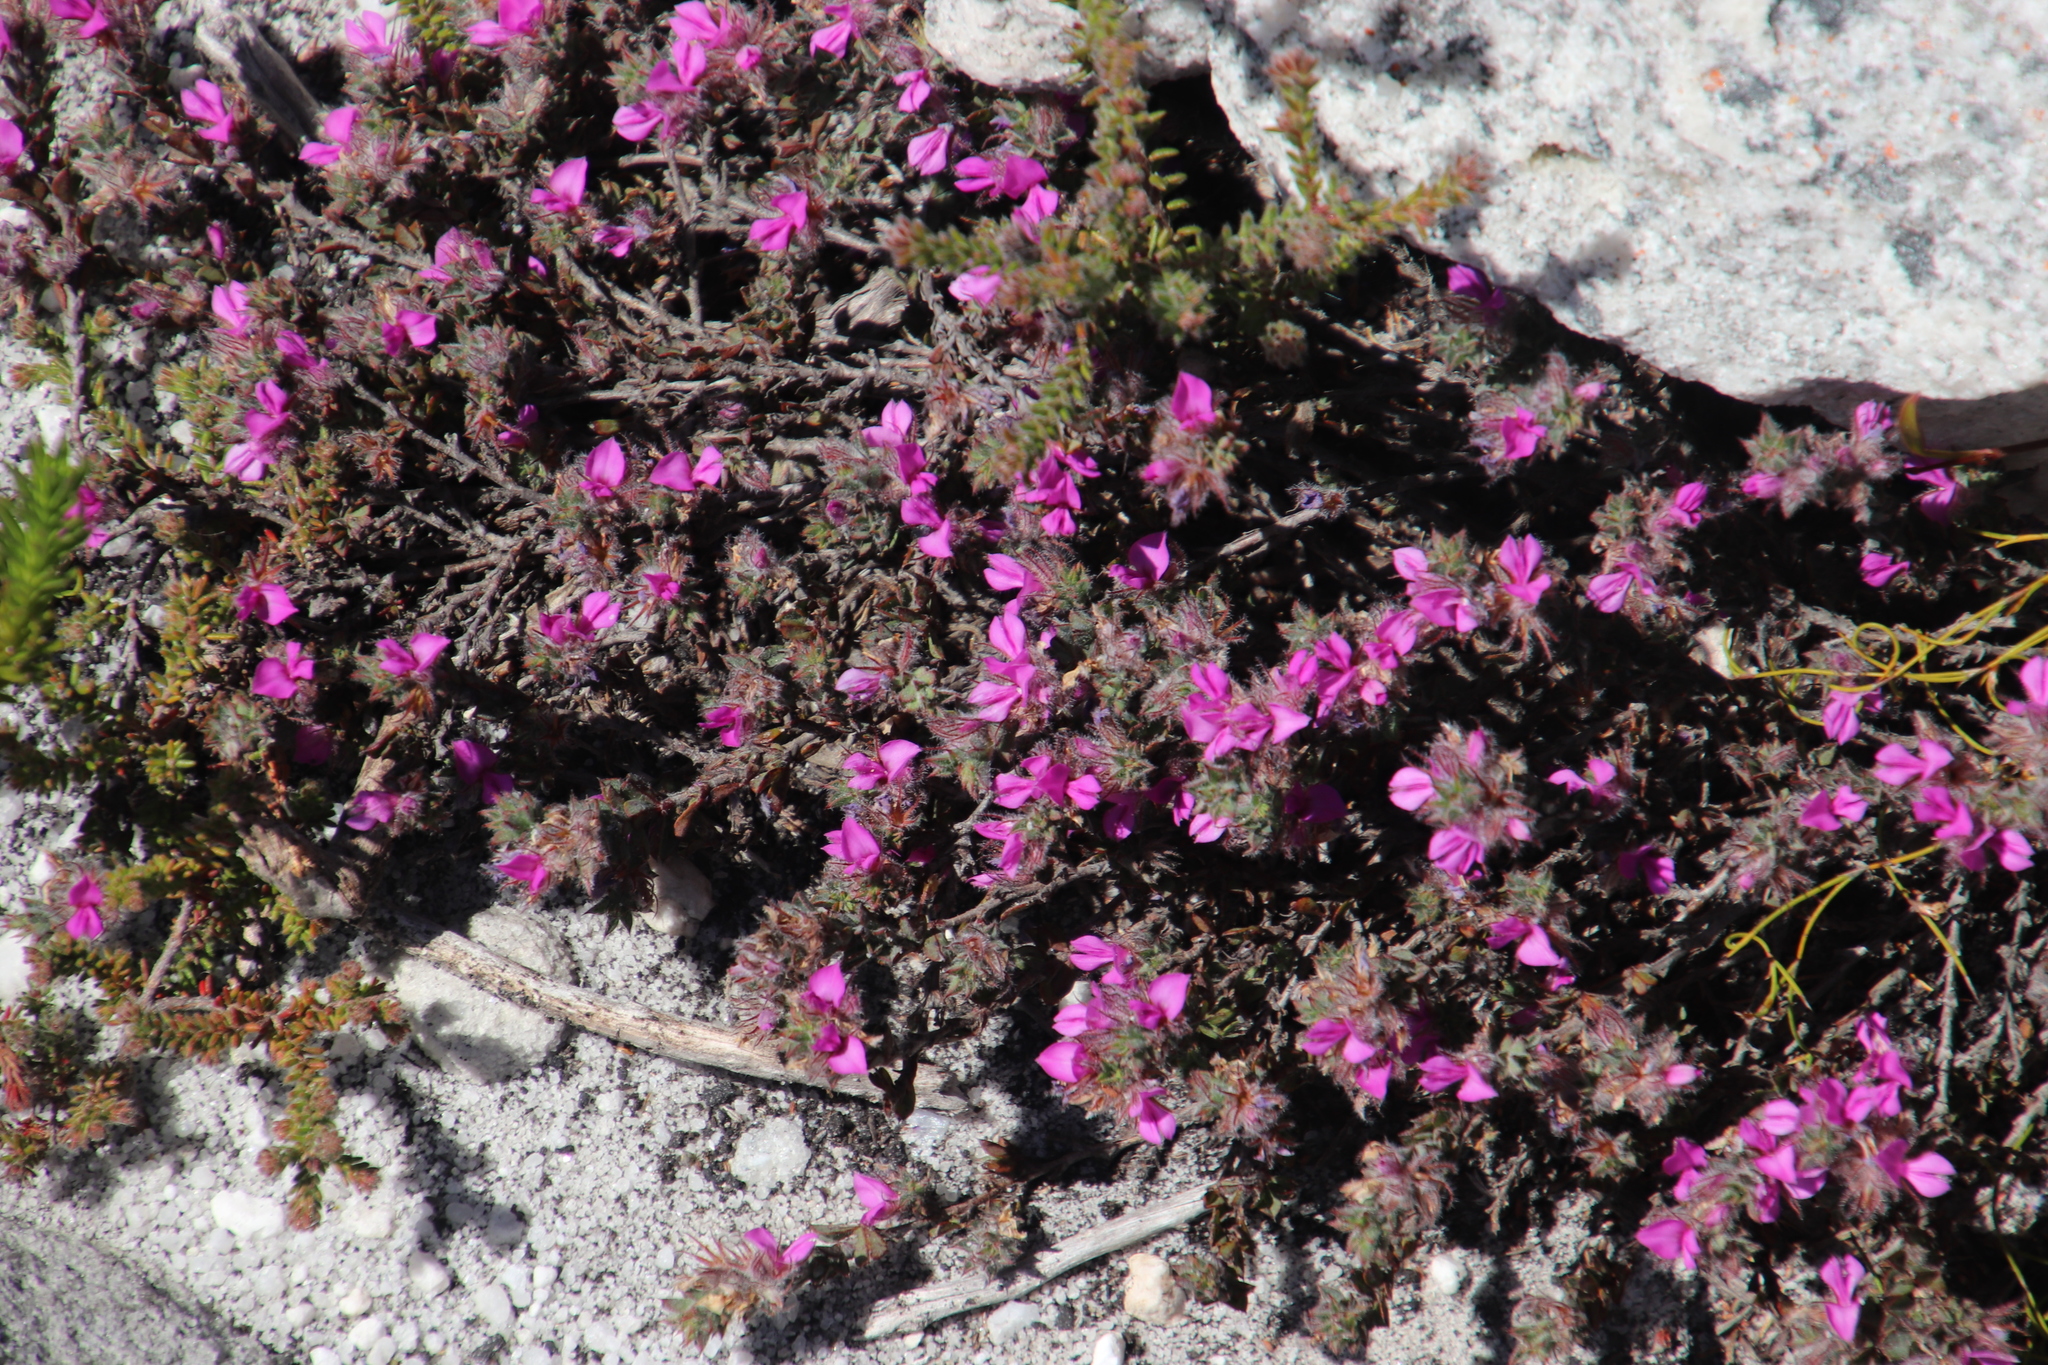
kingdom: Plantae
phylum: Tracheophyta
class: Magnoliopsida
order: Fabales
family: Fabaceae
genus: Indigofera
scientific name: Indigofera glomerata
